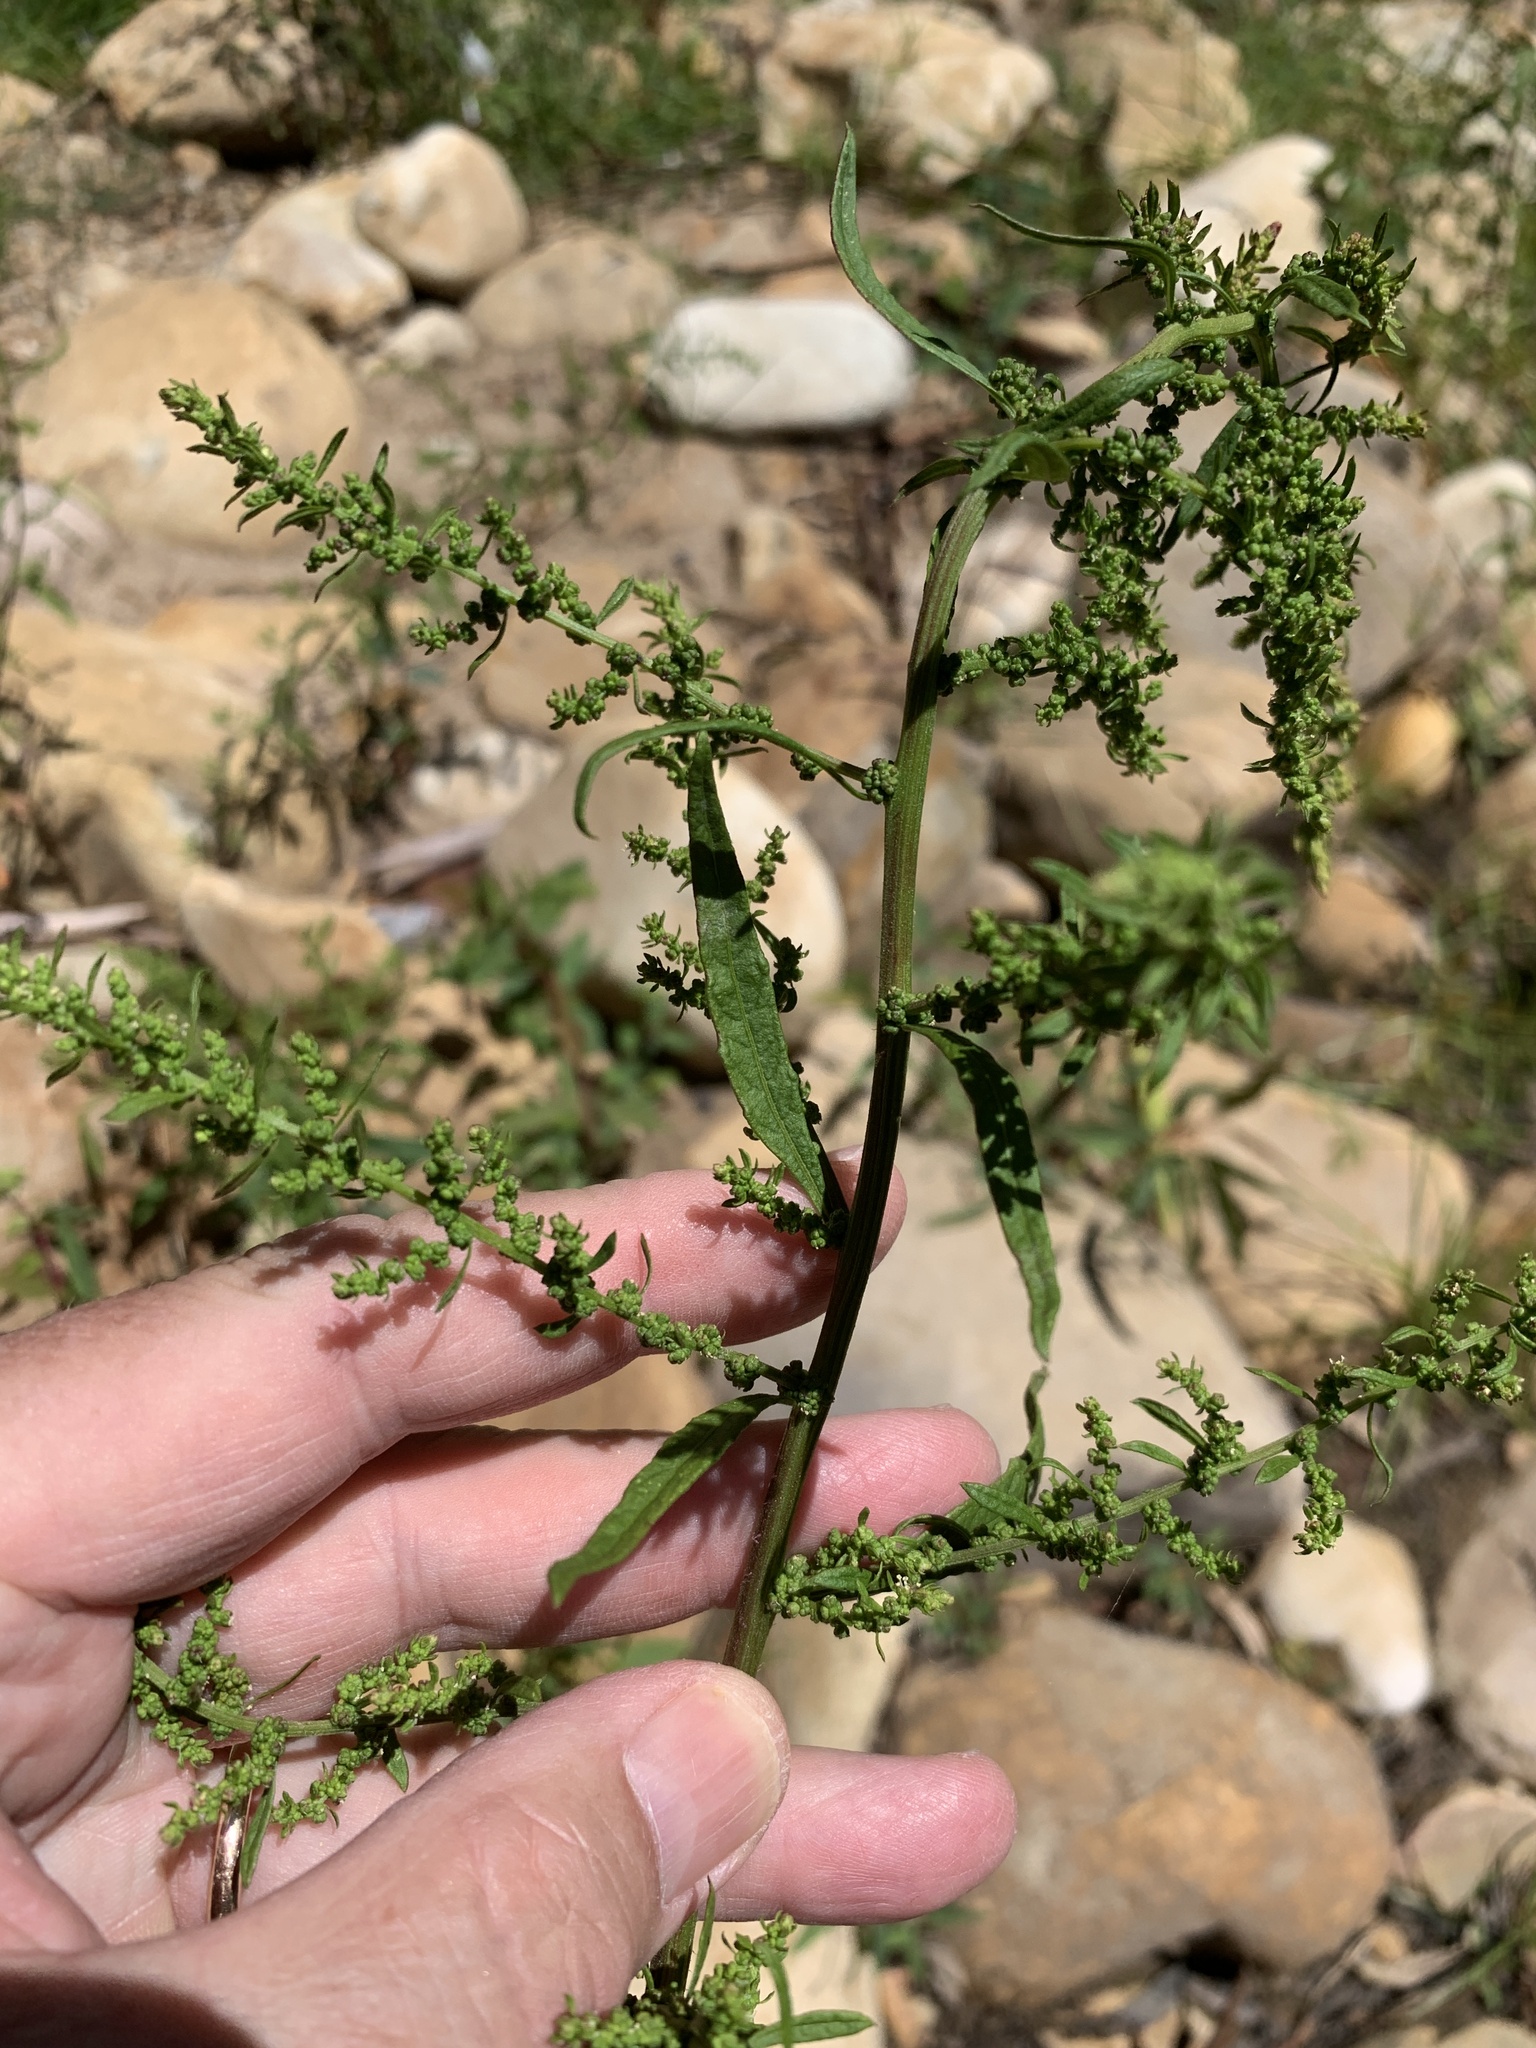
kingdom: Plantae
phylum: Tracheophyta
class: Magnoliopsida
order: Caryophyllales
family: Amaranthaceae
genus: Dysphania
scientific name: Dysphania ambrosioides
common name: Wormseed
